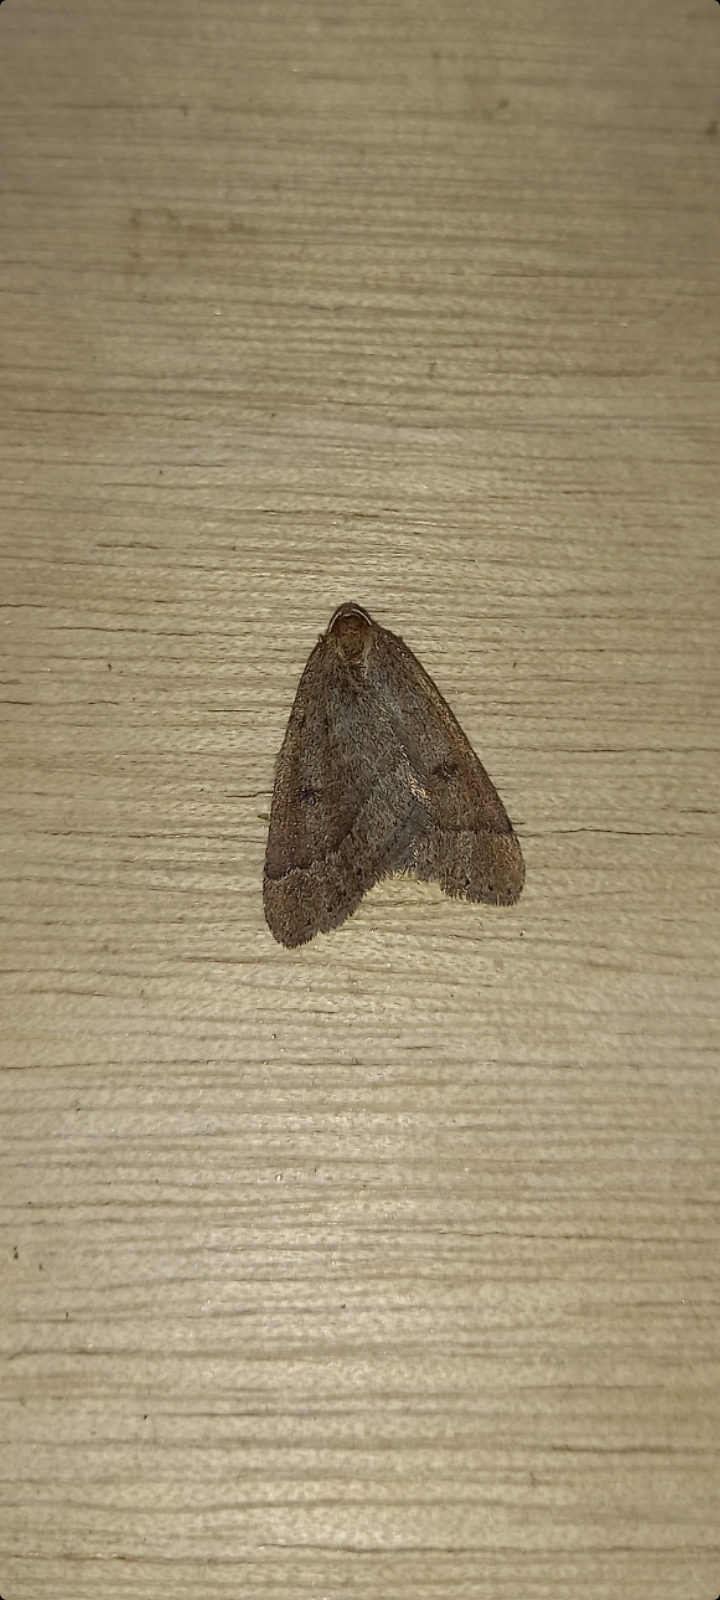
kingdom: Animalia
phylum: Arthropoda
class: Insecta
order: Lepidoptera
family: Geometridae
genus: Theria
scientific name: Theria primaria
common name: Early moth
